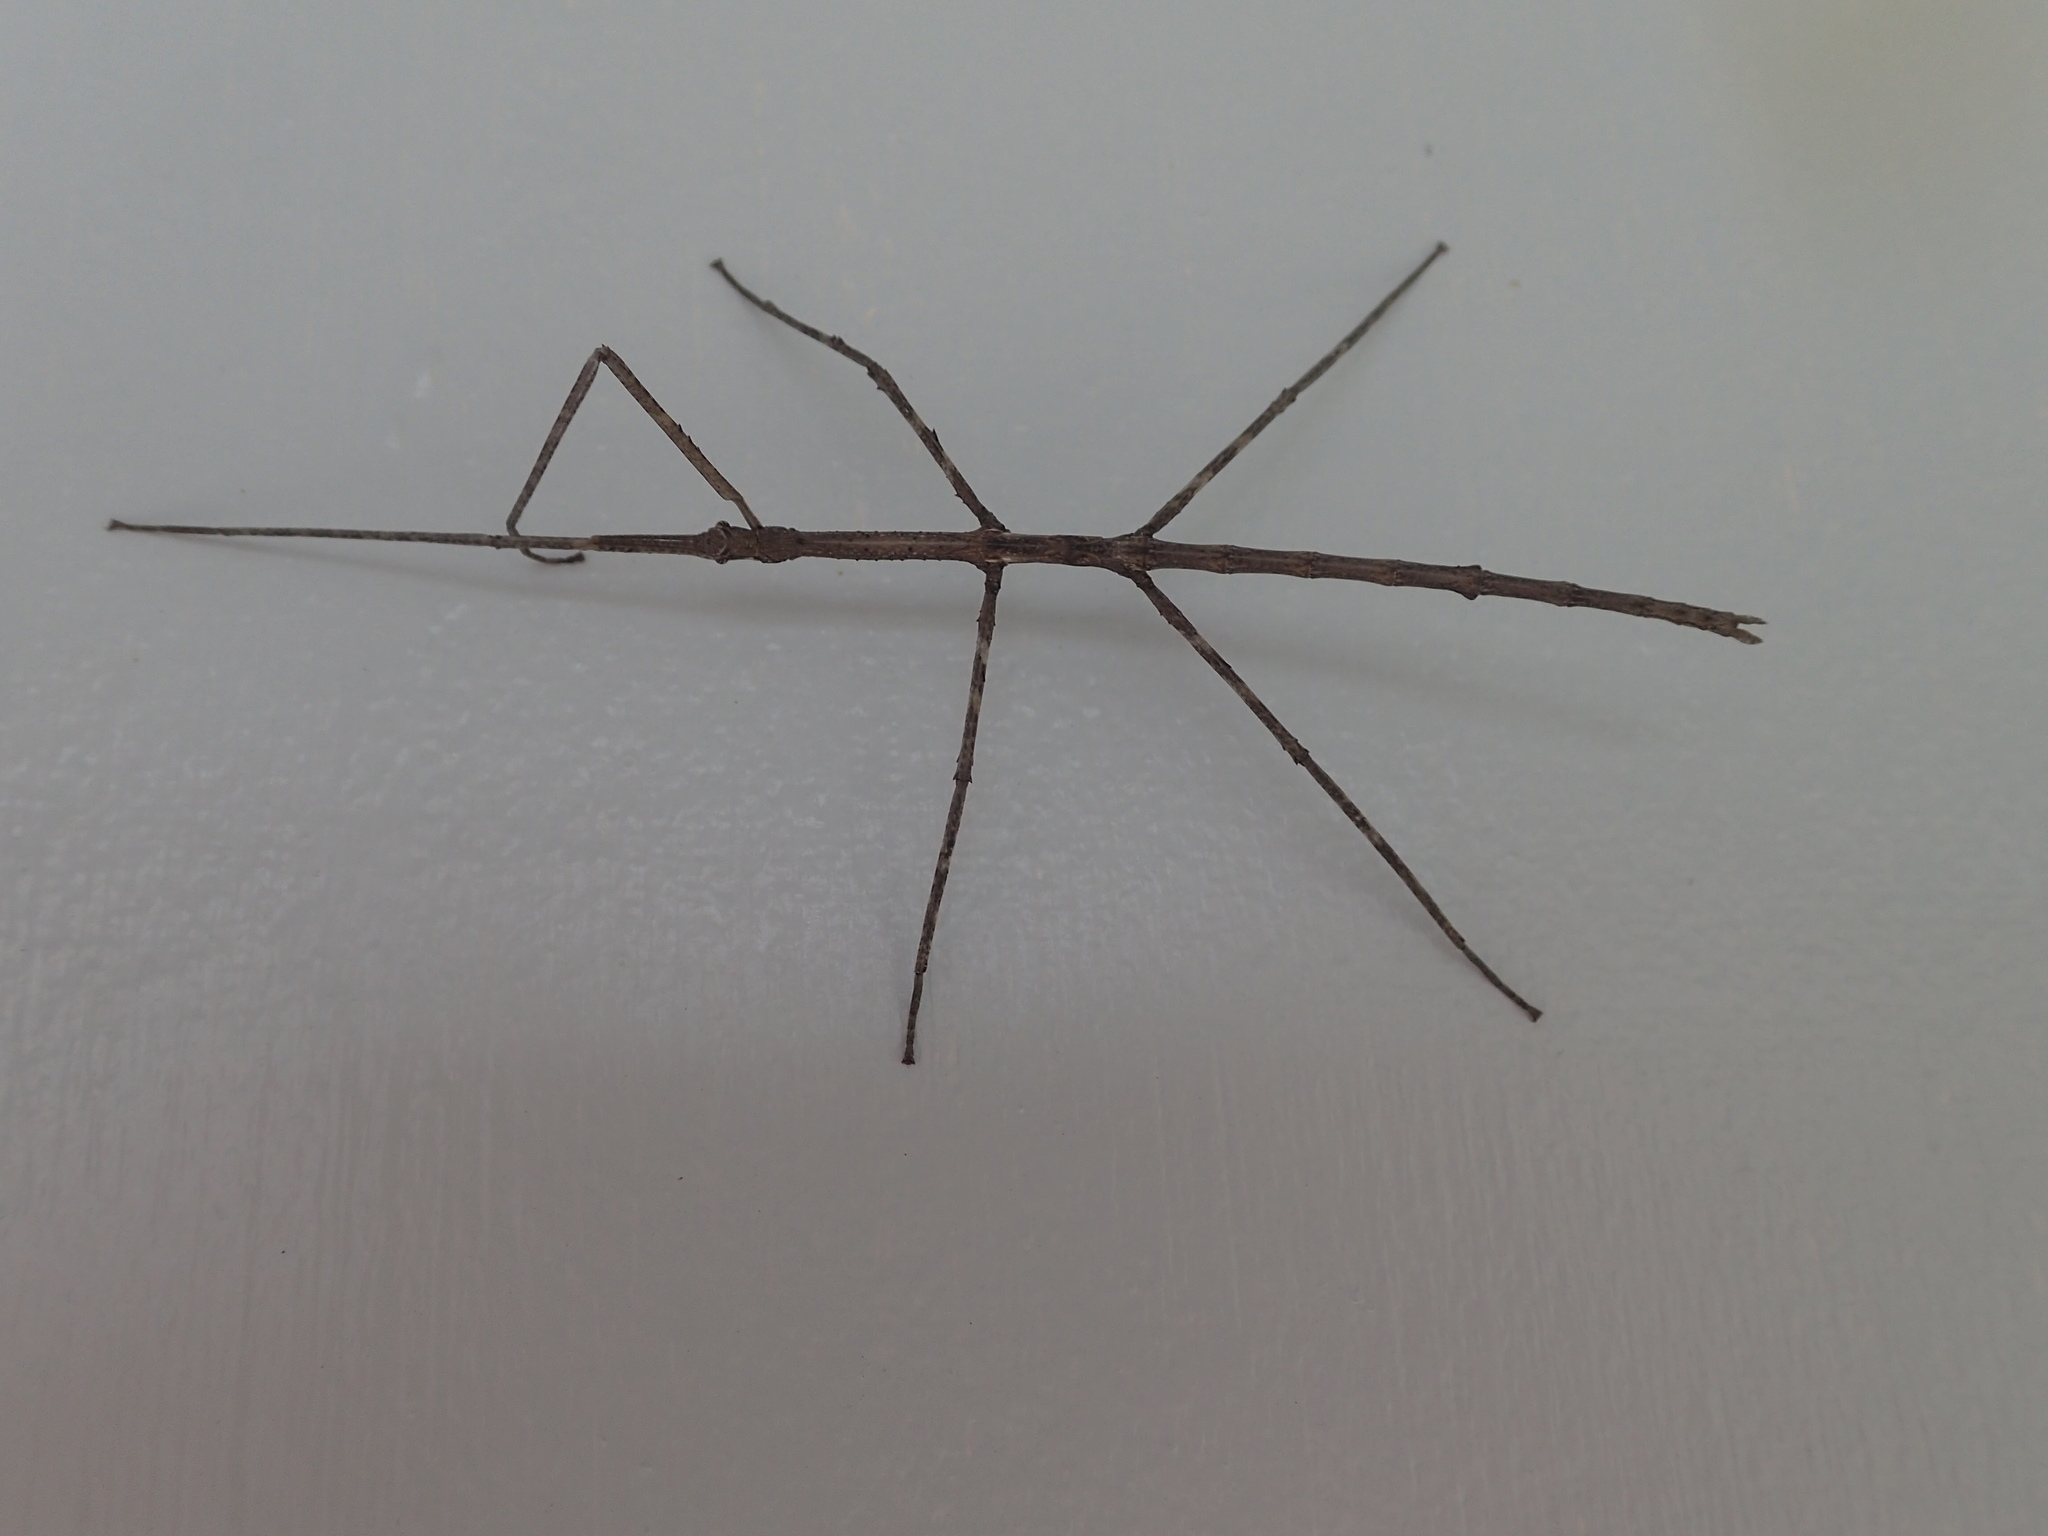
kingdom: Animalia
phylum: Arthropoda
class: Insecta
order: Phasmida
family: Phasmatidae
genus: Ctenomorpha
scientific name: Ctenomorpha marginipennis
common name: Margined-winged stick-insect
